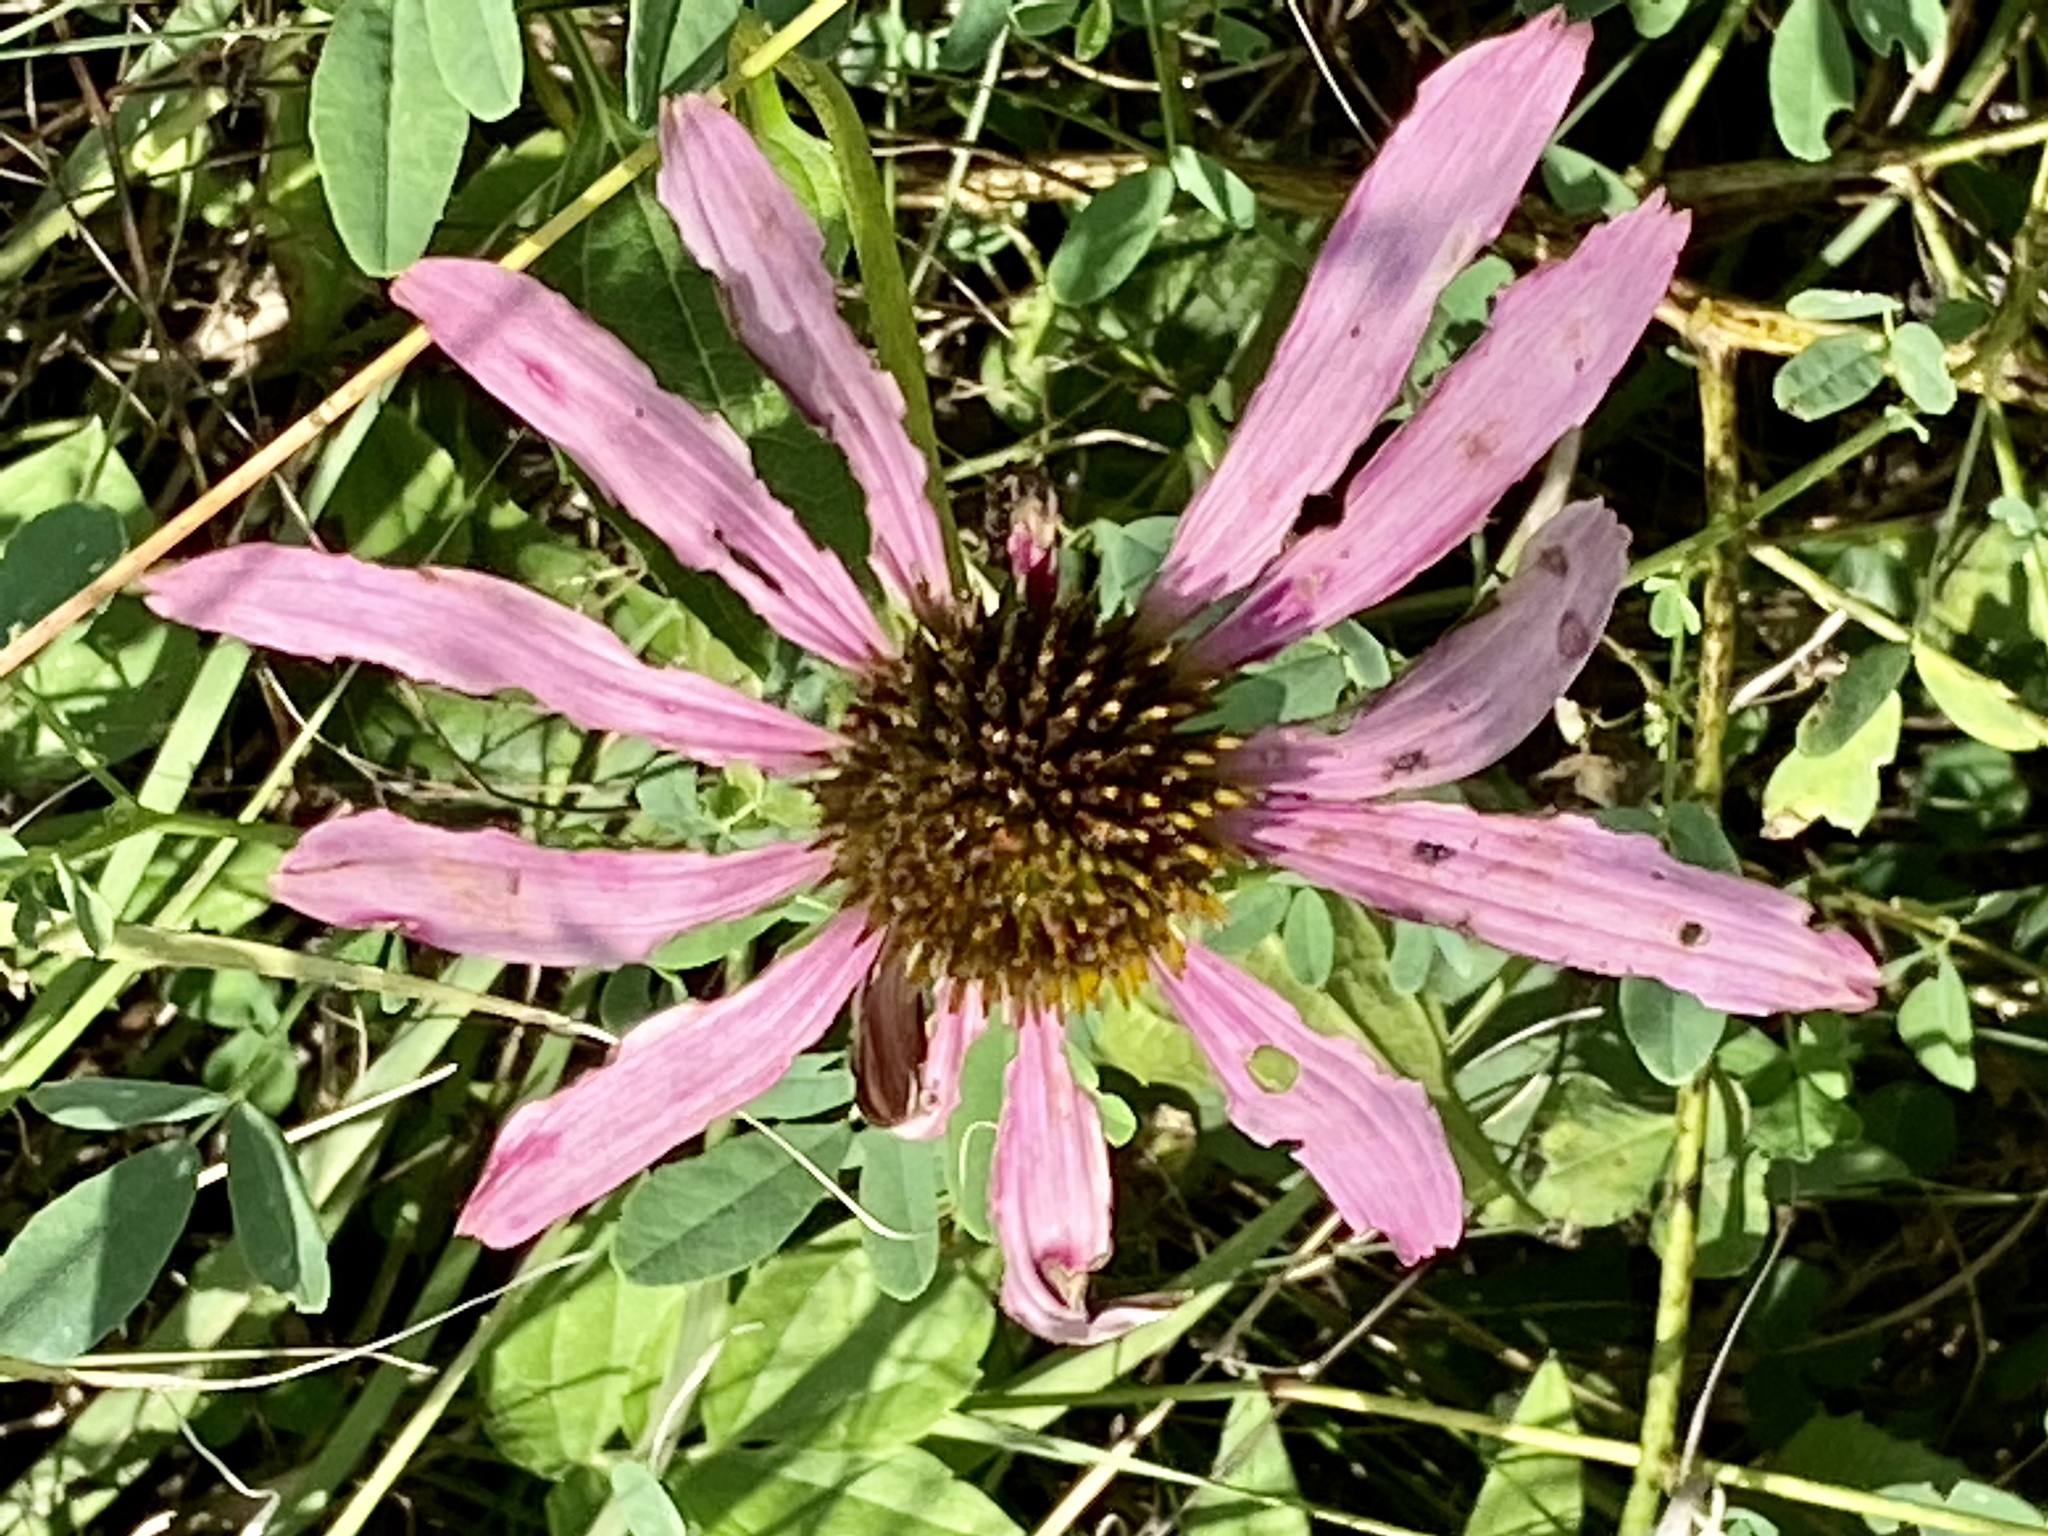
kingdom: Plantae
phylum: Tracheophyta
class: Magnoliopsida
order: Asterales
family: Asteraceae
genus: Echinacea
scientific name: Echinacea purpurea
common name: Broad-leaved purple coneflower
